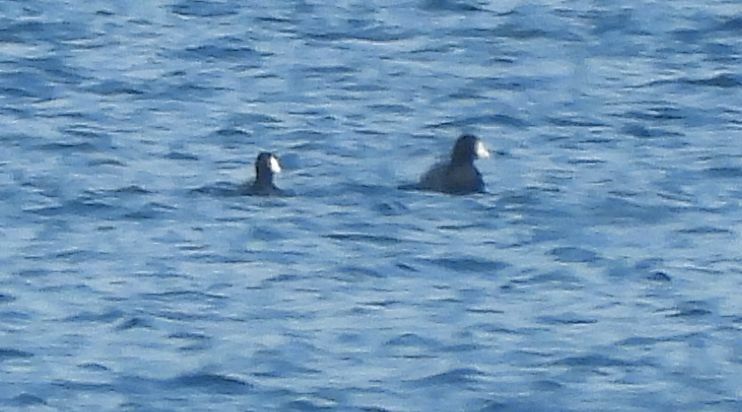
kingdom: Animalia
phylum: Chordata
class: Aves
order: Gruiformes
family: Rallidae
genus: Fulica
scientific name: Fulica americana
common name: American coot
